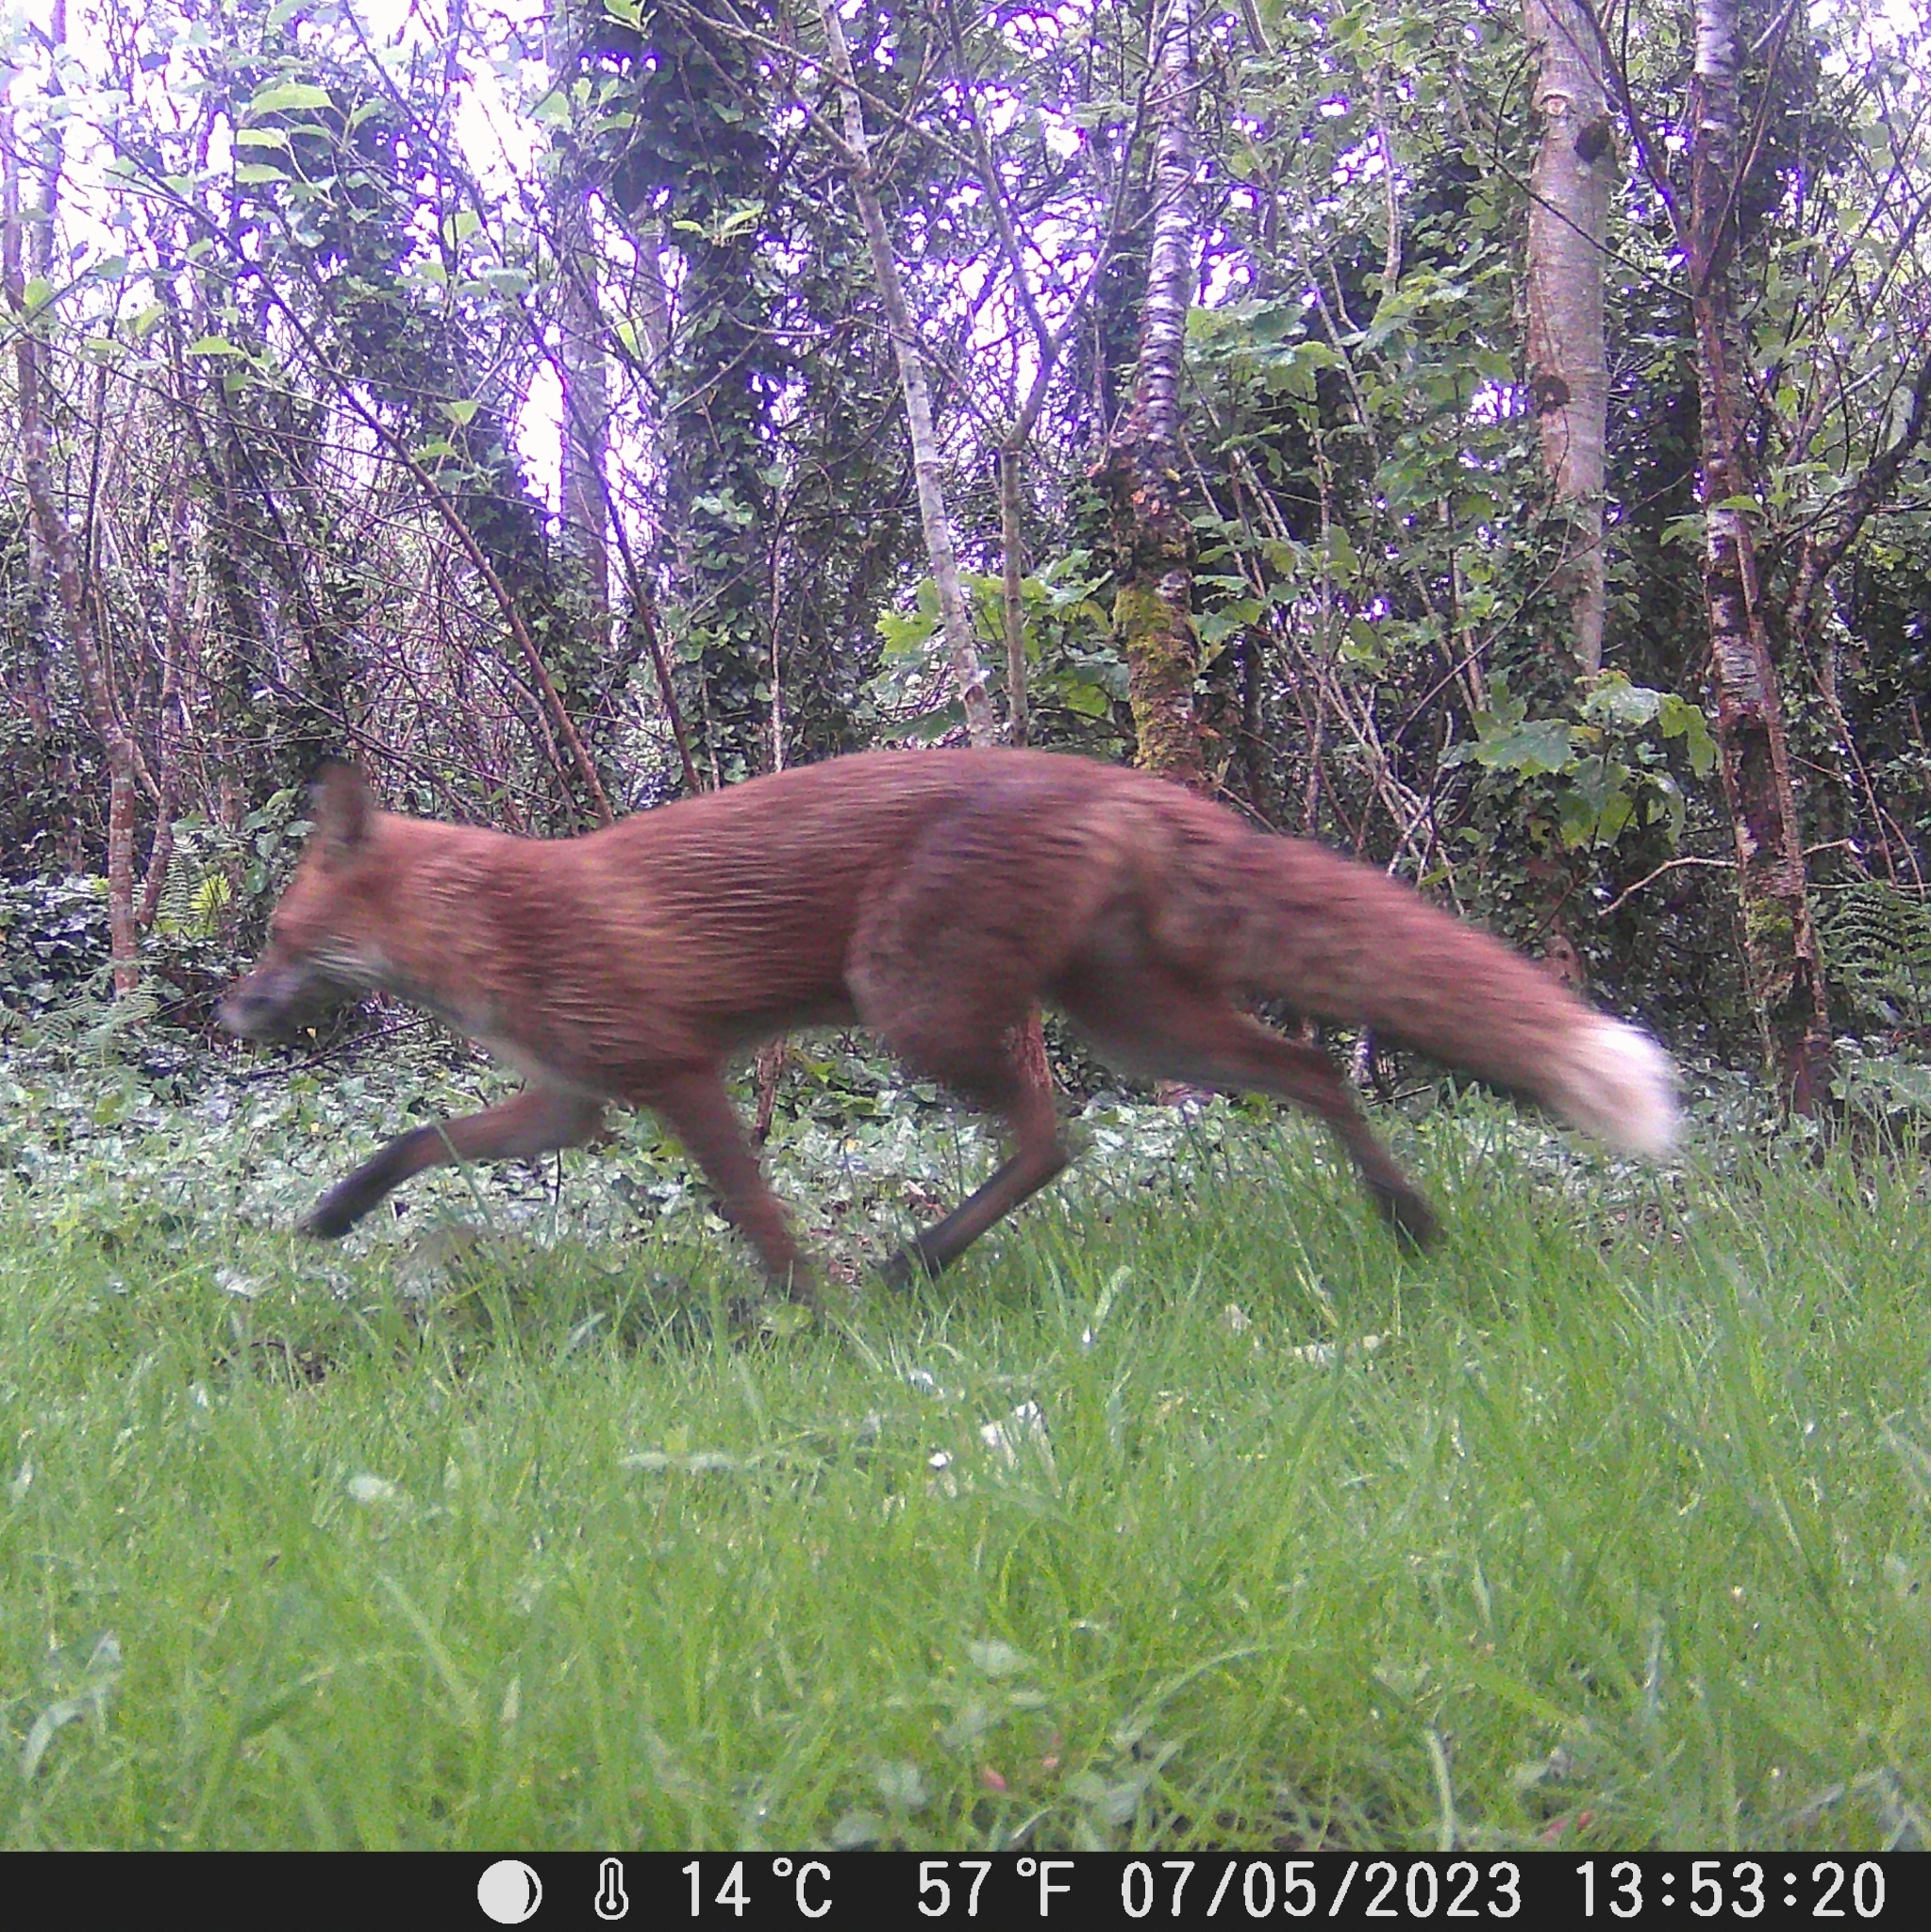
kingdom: Animalia
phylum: Chordata
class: Mammalia
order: Carnivora
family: Canidae
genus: Vulpes
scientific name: Vulpes vulpes
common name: Red fox
